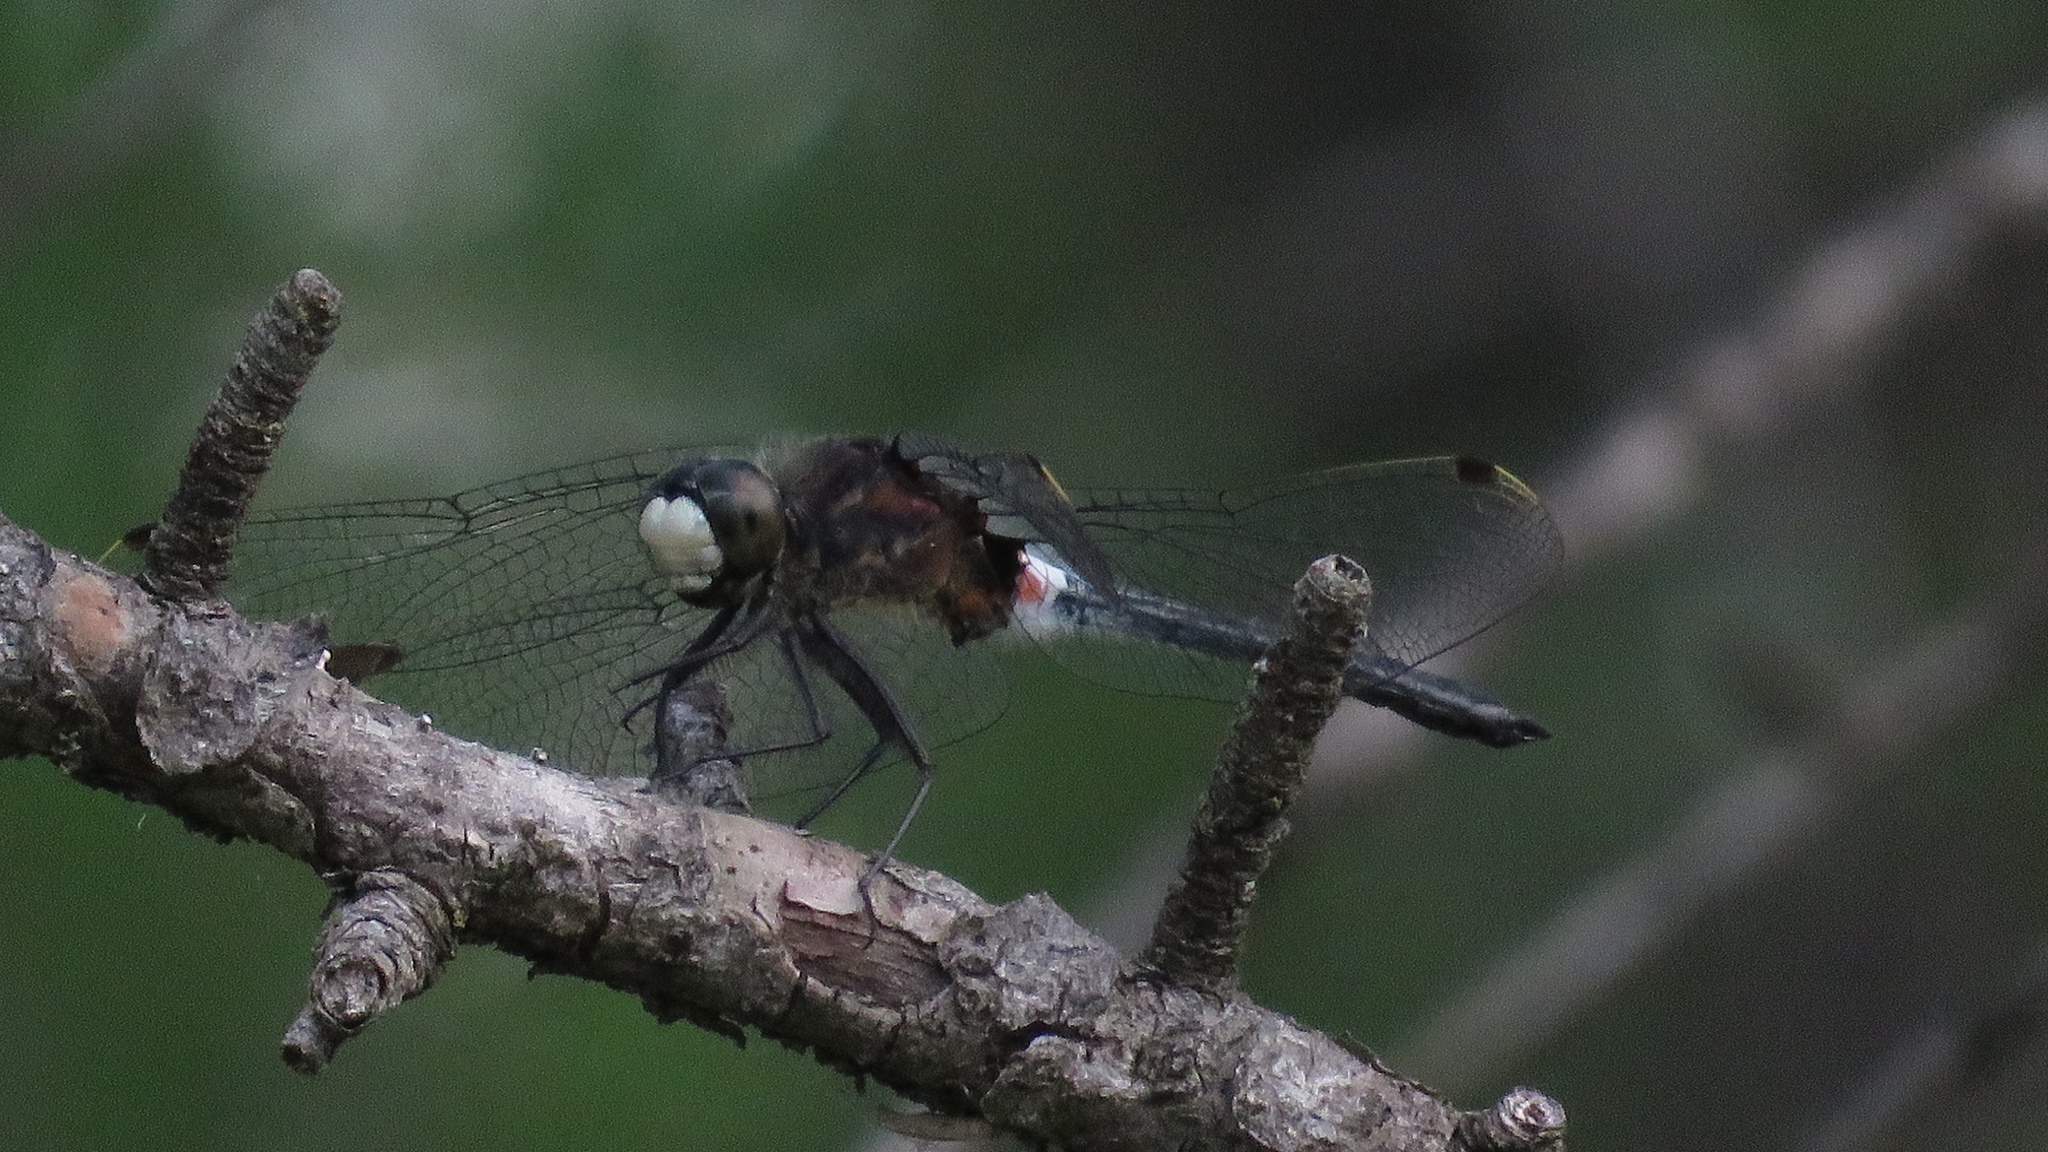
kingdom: Animalia
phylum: Arthropoda
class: Insecta
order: Odonata
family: Libellulidae
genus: Leucorrhinia
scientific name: Leucorrhinia proxima
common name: Belted whiteface
